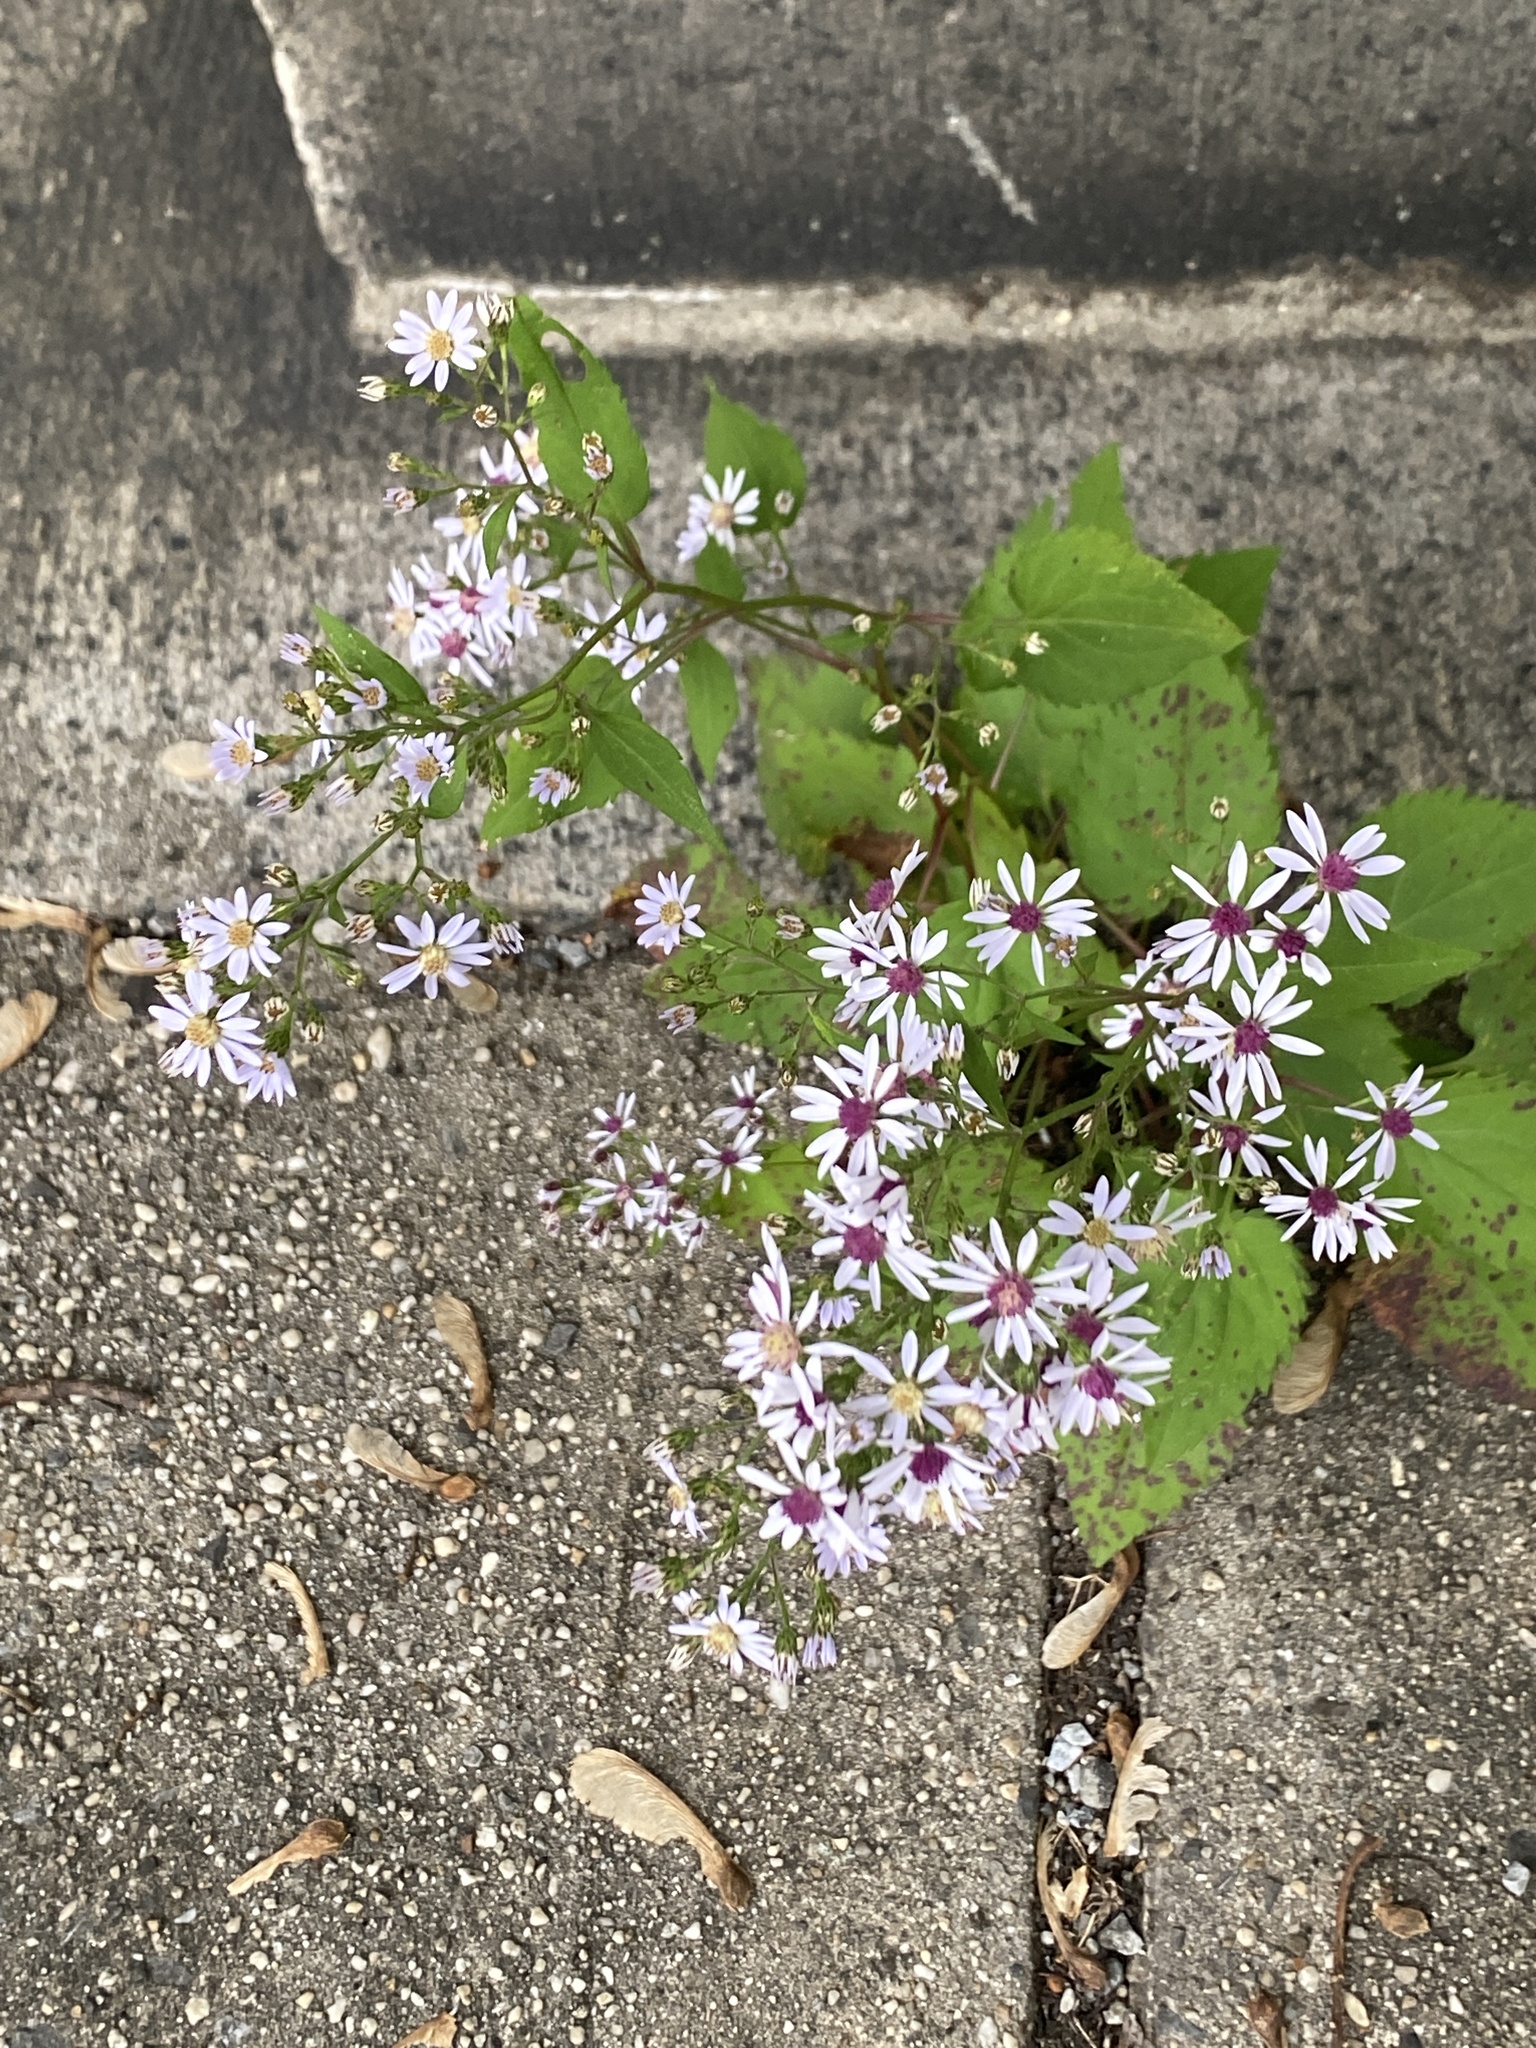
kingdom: Plantae
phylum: Tracheophyta
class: Magnoliopsida
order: Asterales
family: Asteraceae
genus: Symphyotrichum
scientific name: Symphyotrichum cordifolium
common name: Beeweed
